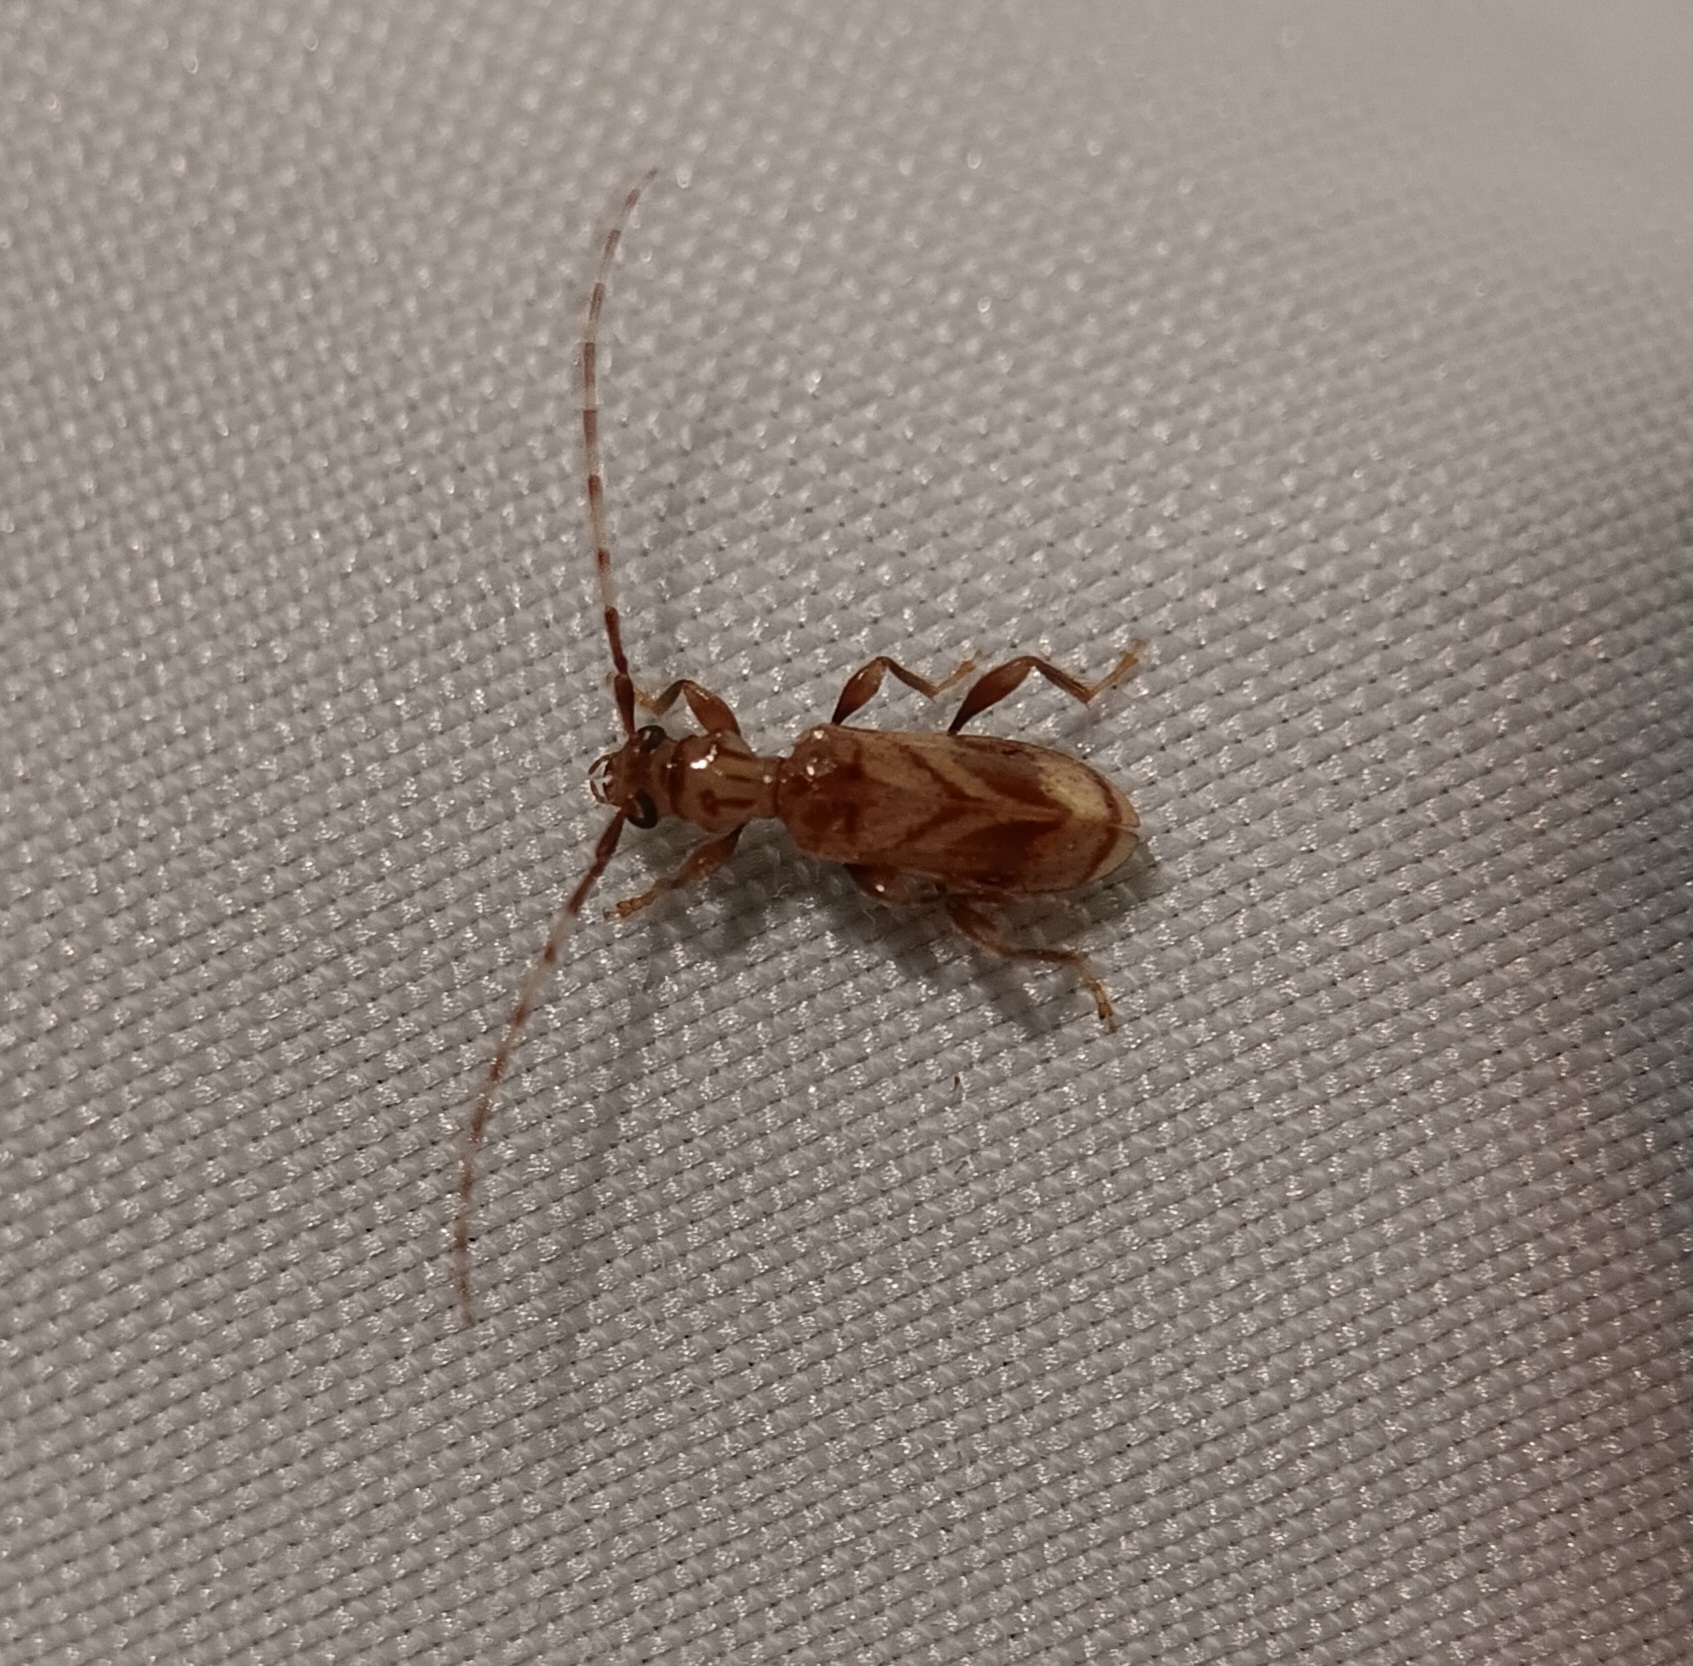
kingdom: Animalia
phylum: Arthropoda
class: Insecta
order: Coleoptera
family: Cerambycidae
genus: Obrium
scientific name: Obrium maculatum
